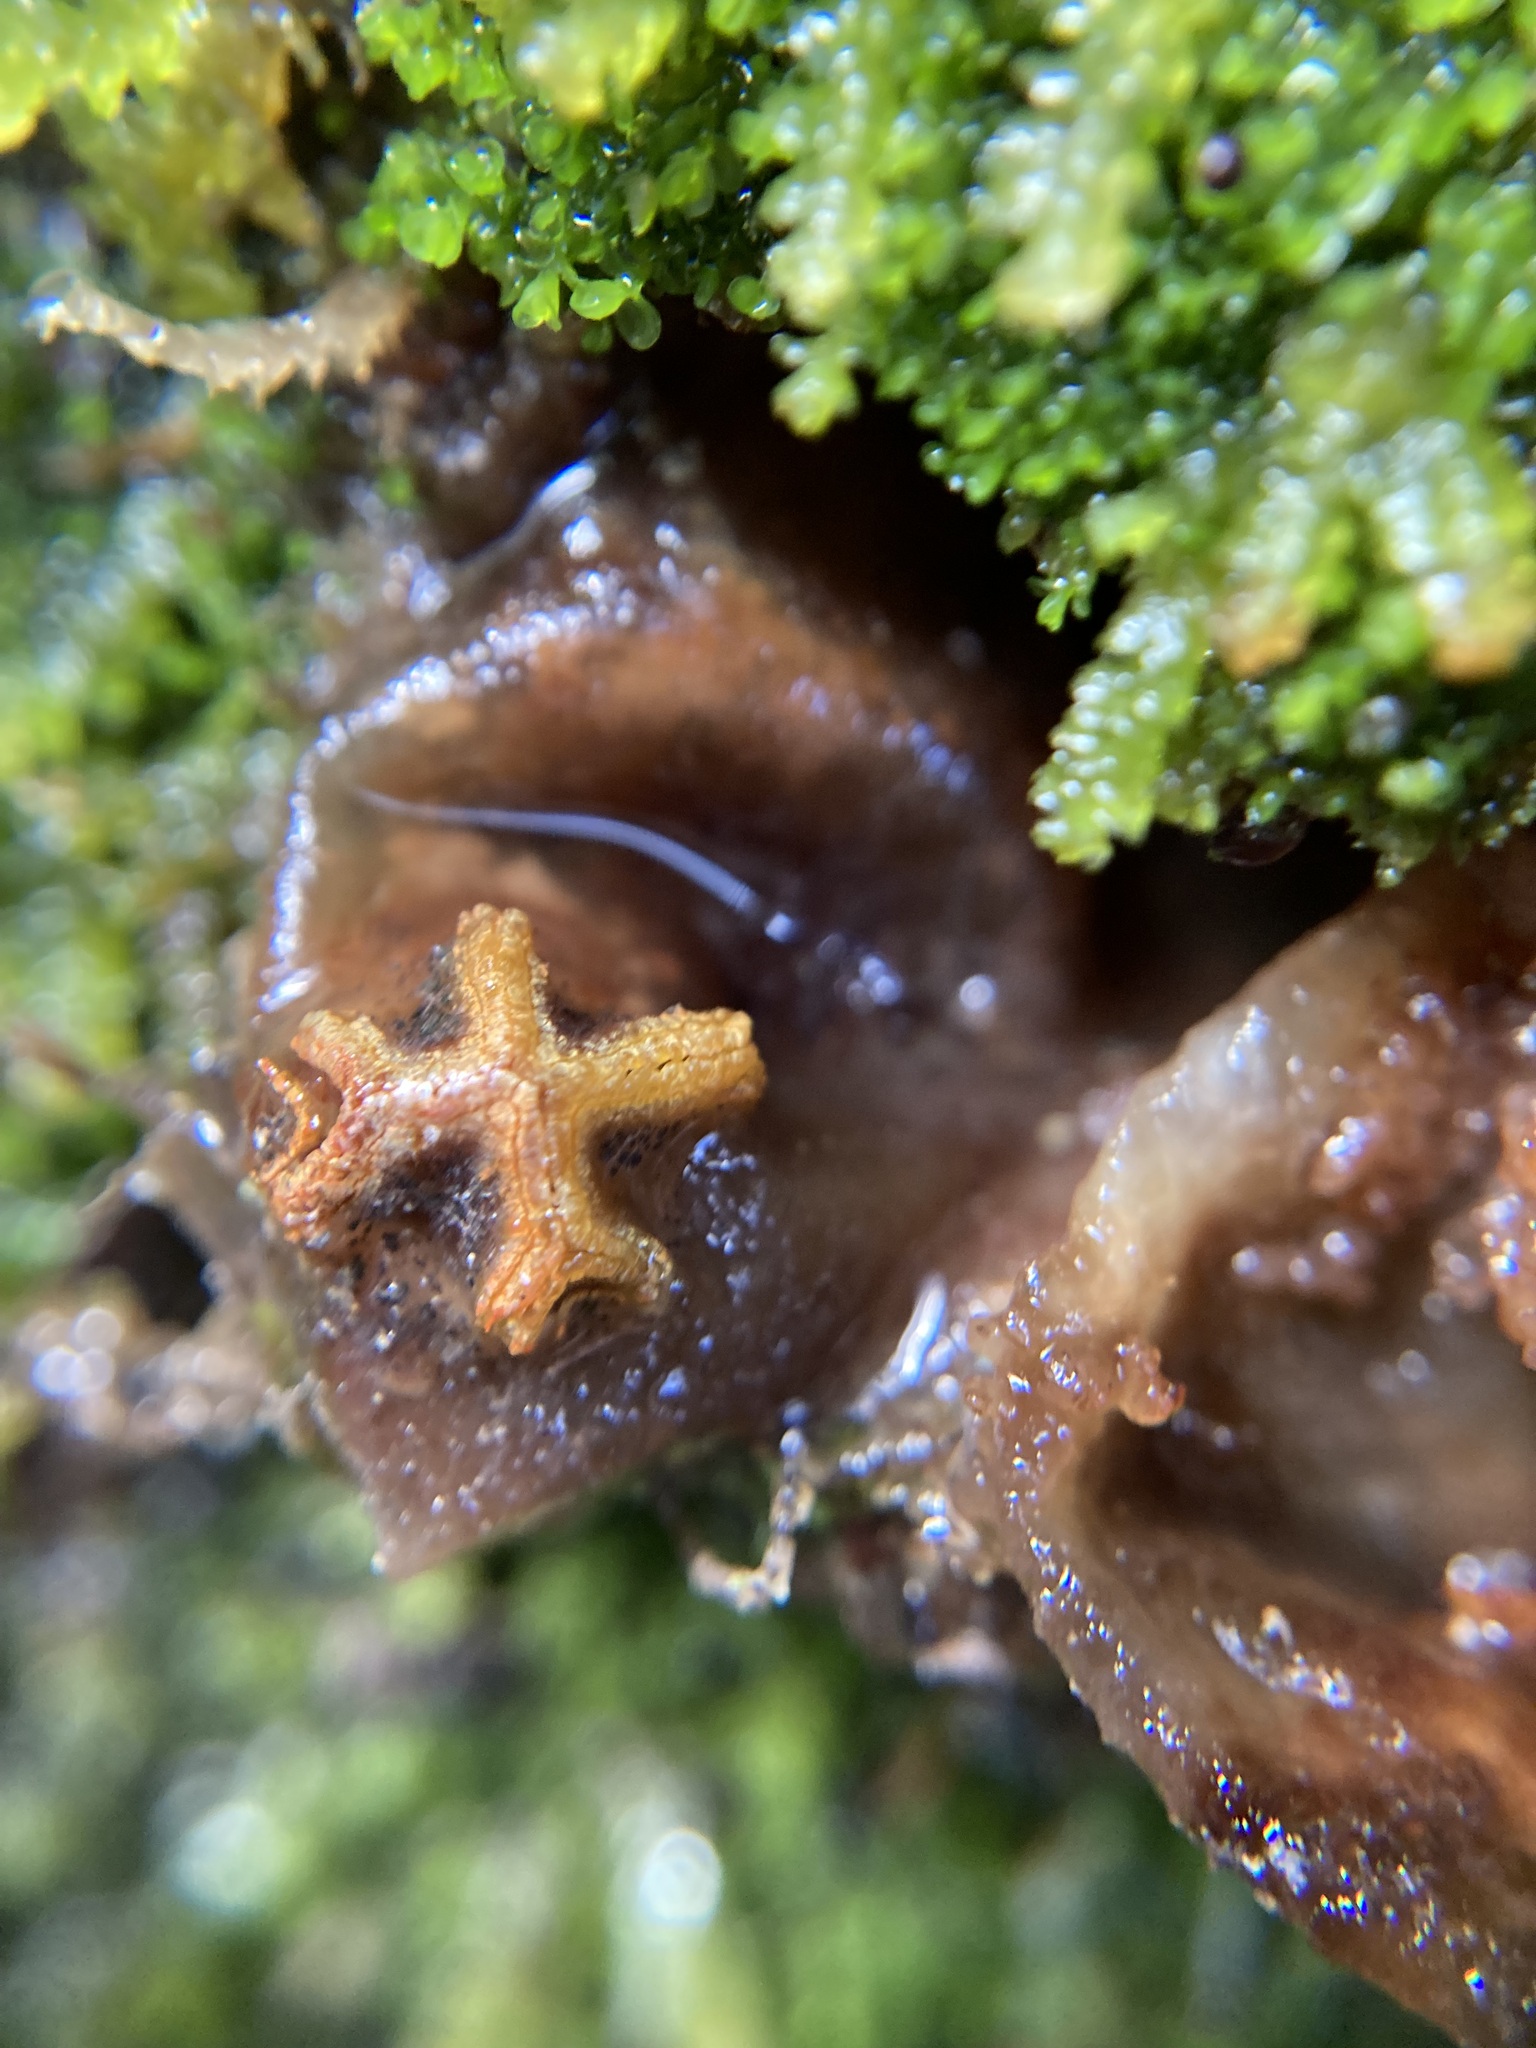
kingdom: Fungi
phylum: Basidiomycota
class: Agaricomycetes
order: Boletales
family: Calostomataceae
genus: Calostoma
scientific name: Calostoma rodwayi
